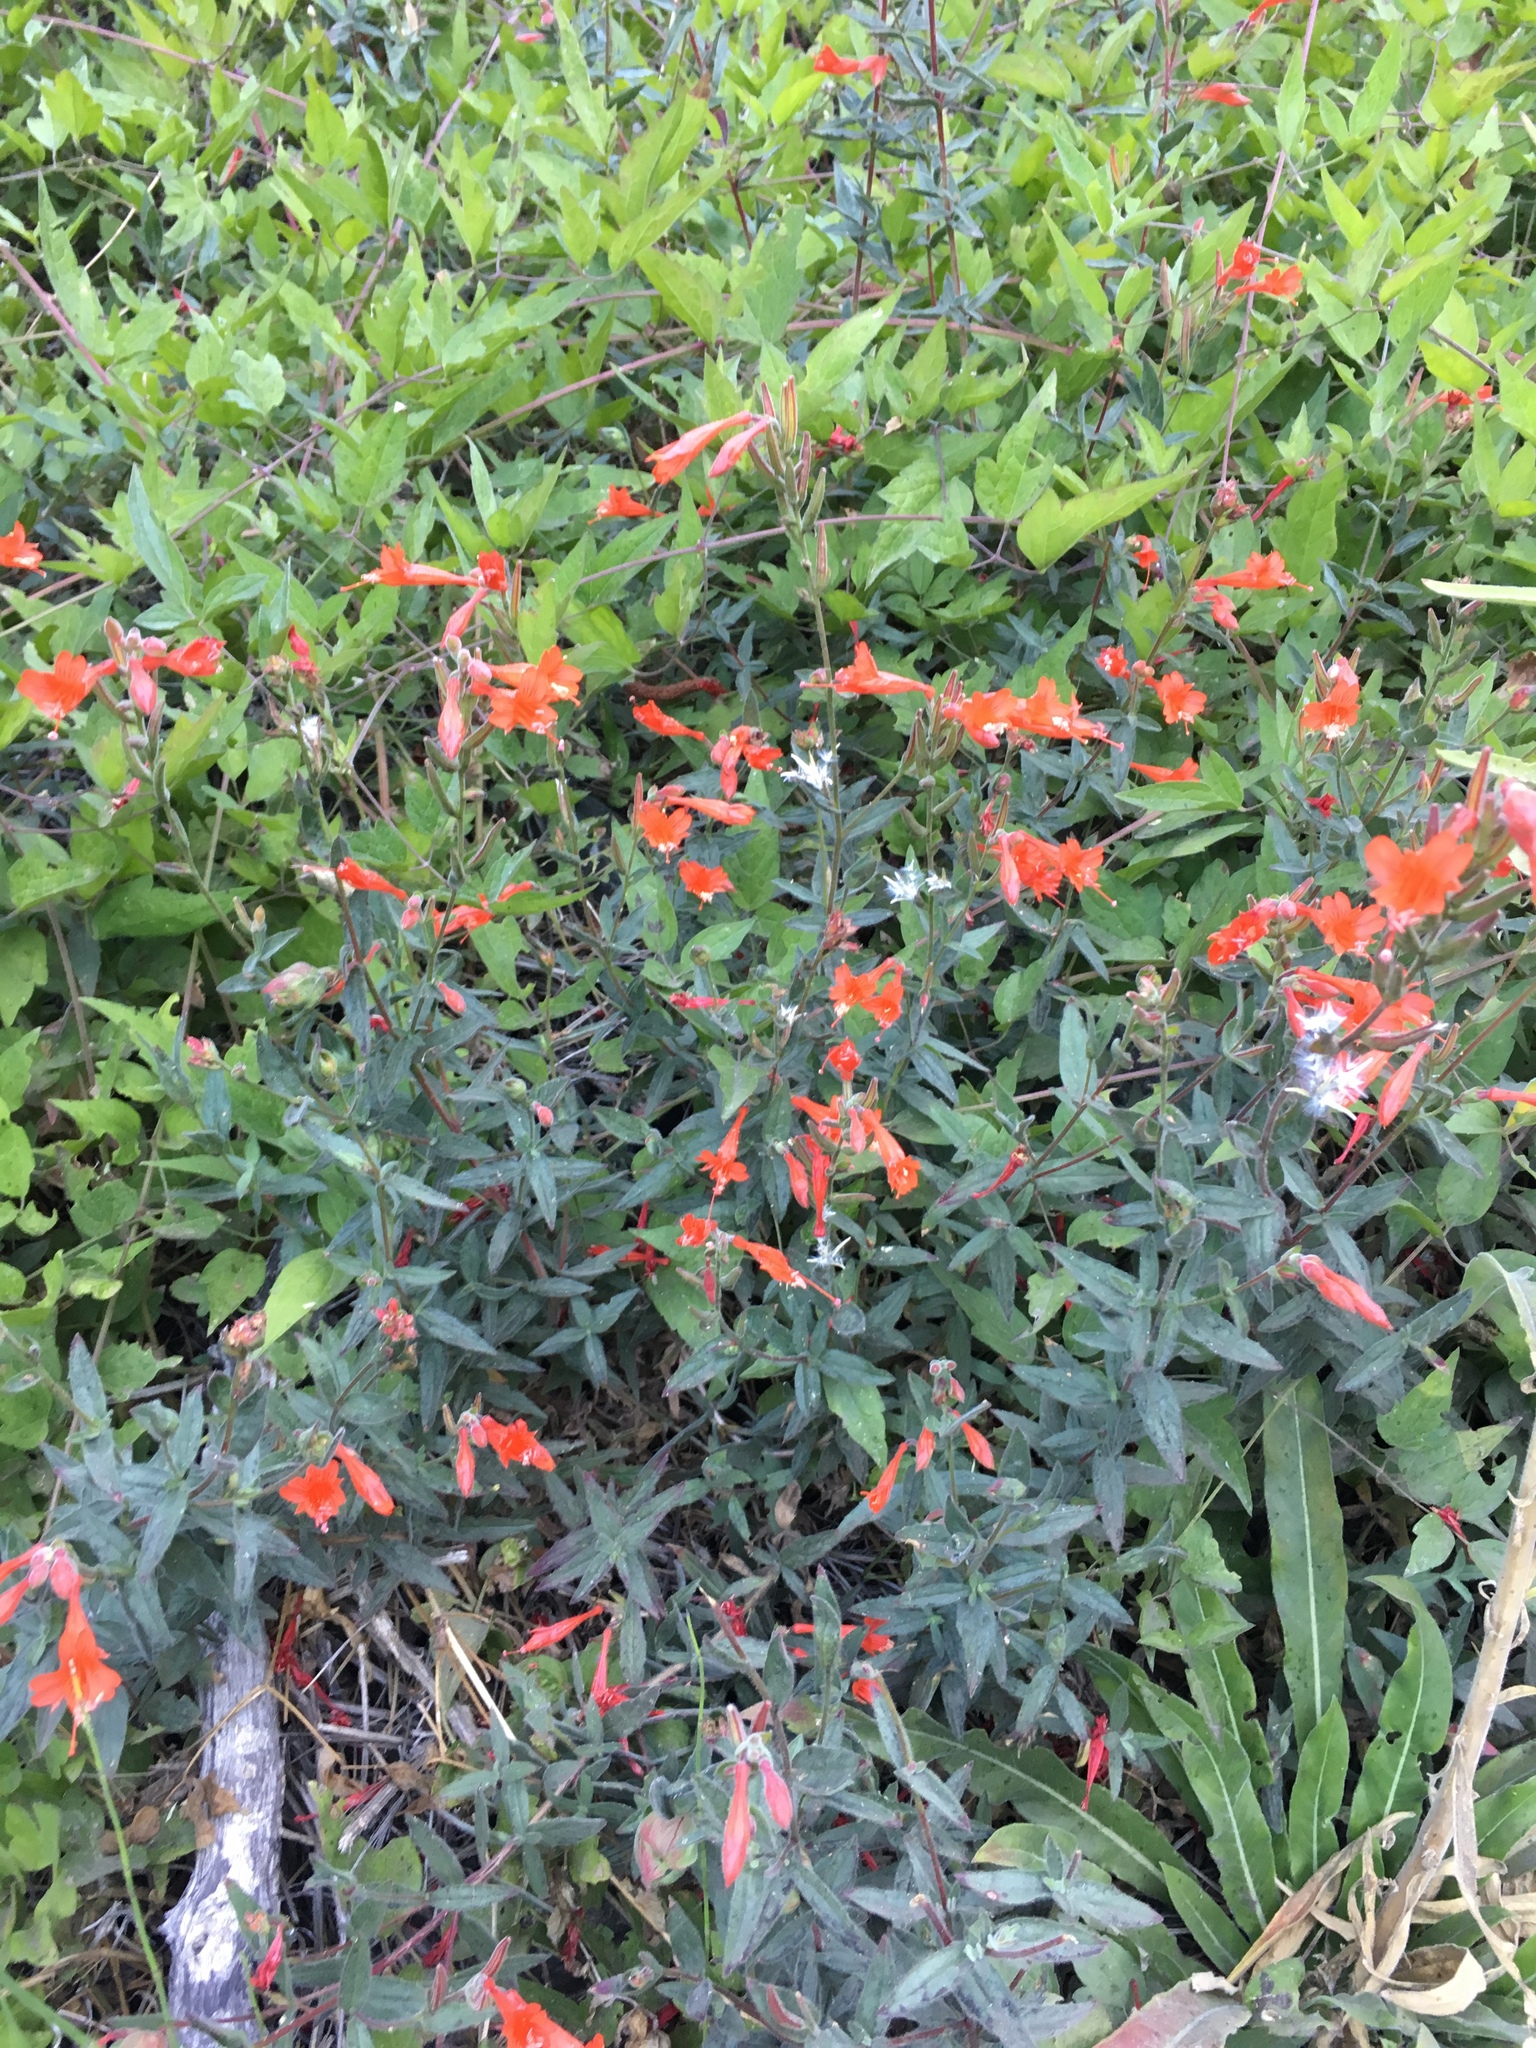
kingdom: Plantae
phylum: Tracheophyta
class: Magnoliopsida
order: Myrtales
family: Onagraceae
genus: Epilobium
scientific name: Epilobium canum
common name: California-fuchsia
